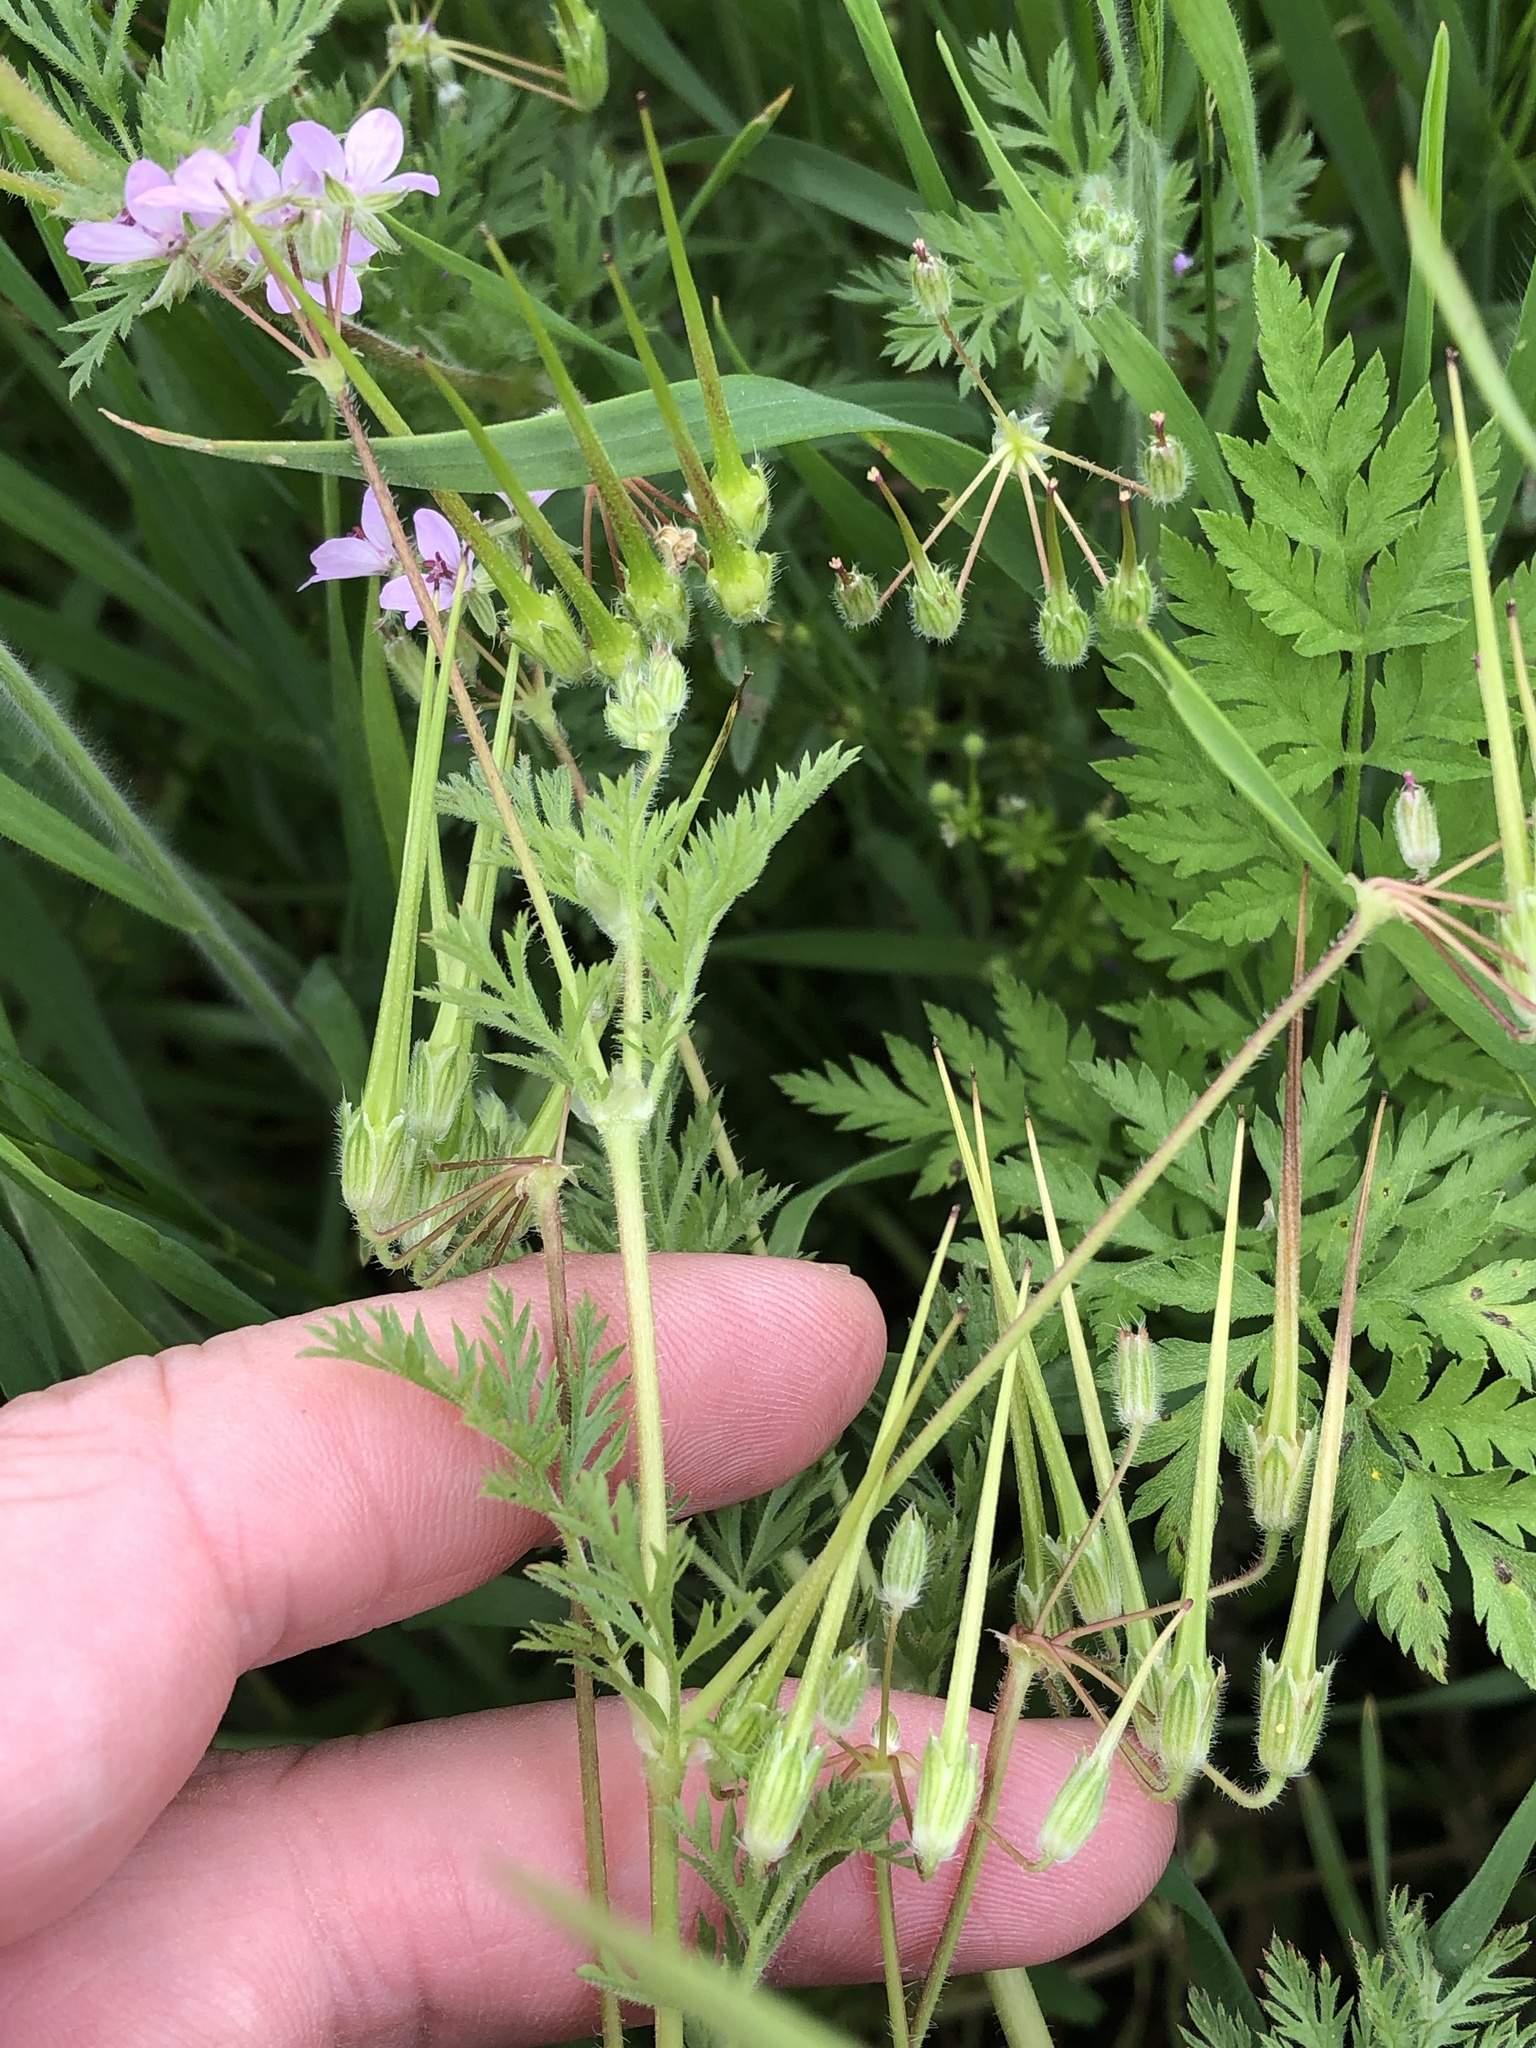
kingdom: Plantae
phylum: Tracheophyta
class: Magnoliopsida
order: Geraniales
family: Geraniaceae
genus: Erodium
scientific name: Erodium cicutarium
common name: Common stork's-bill
